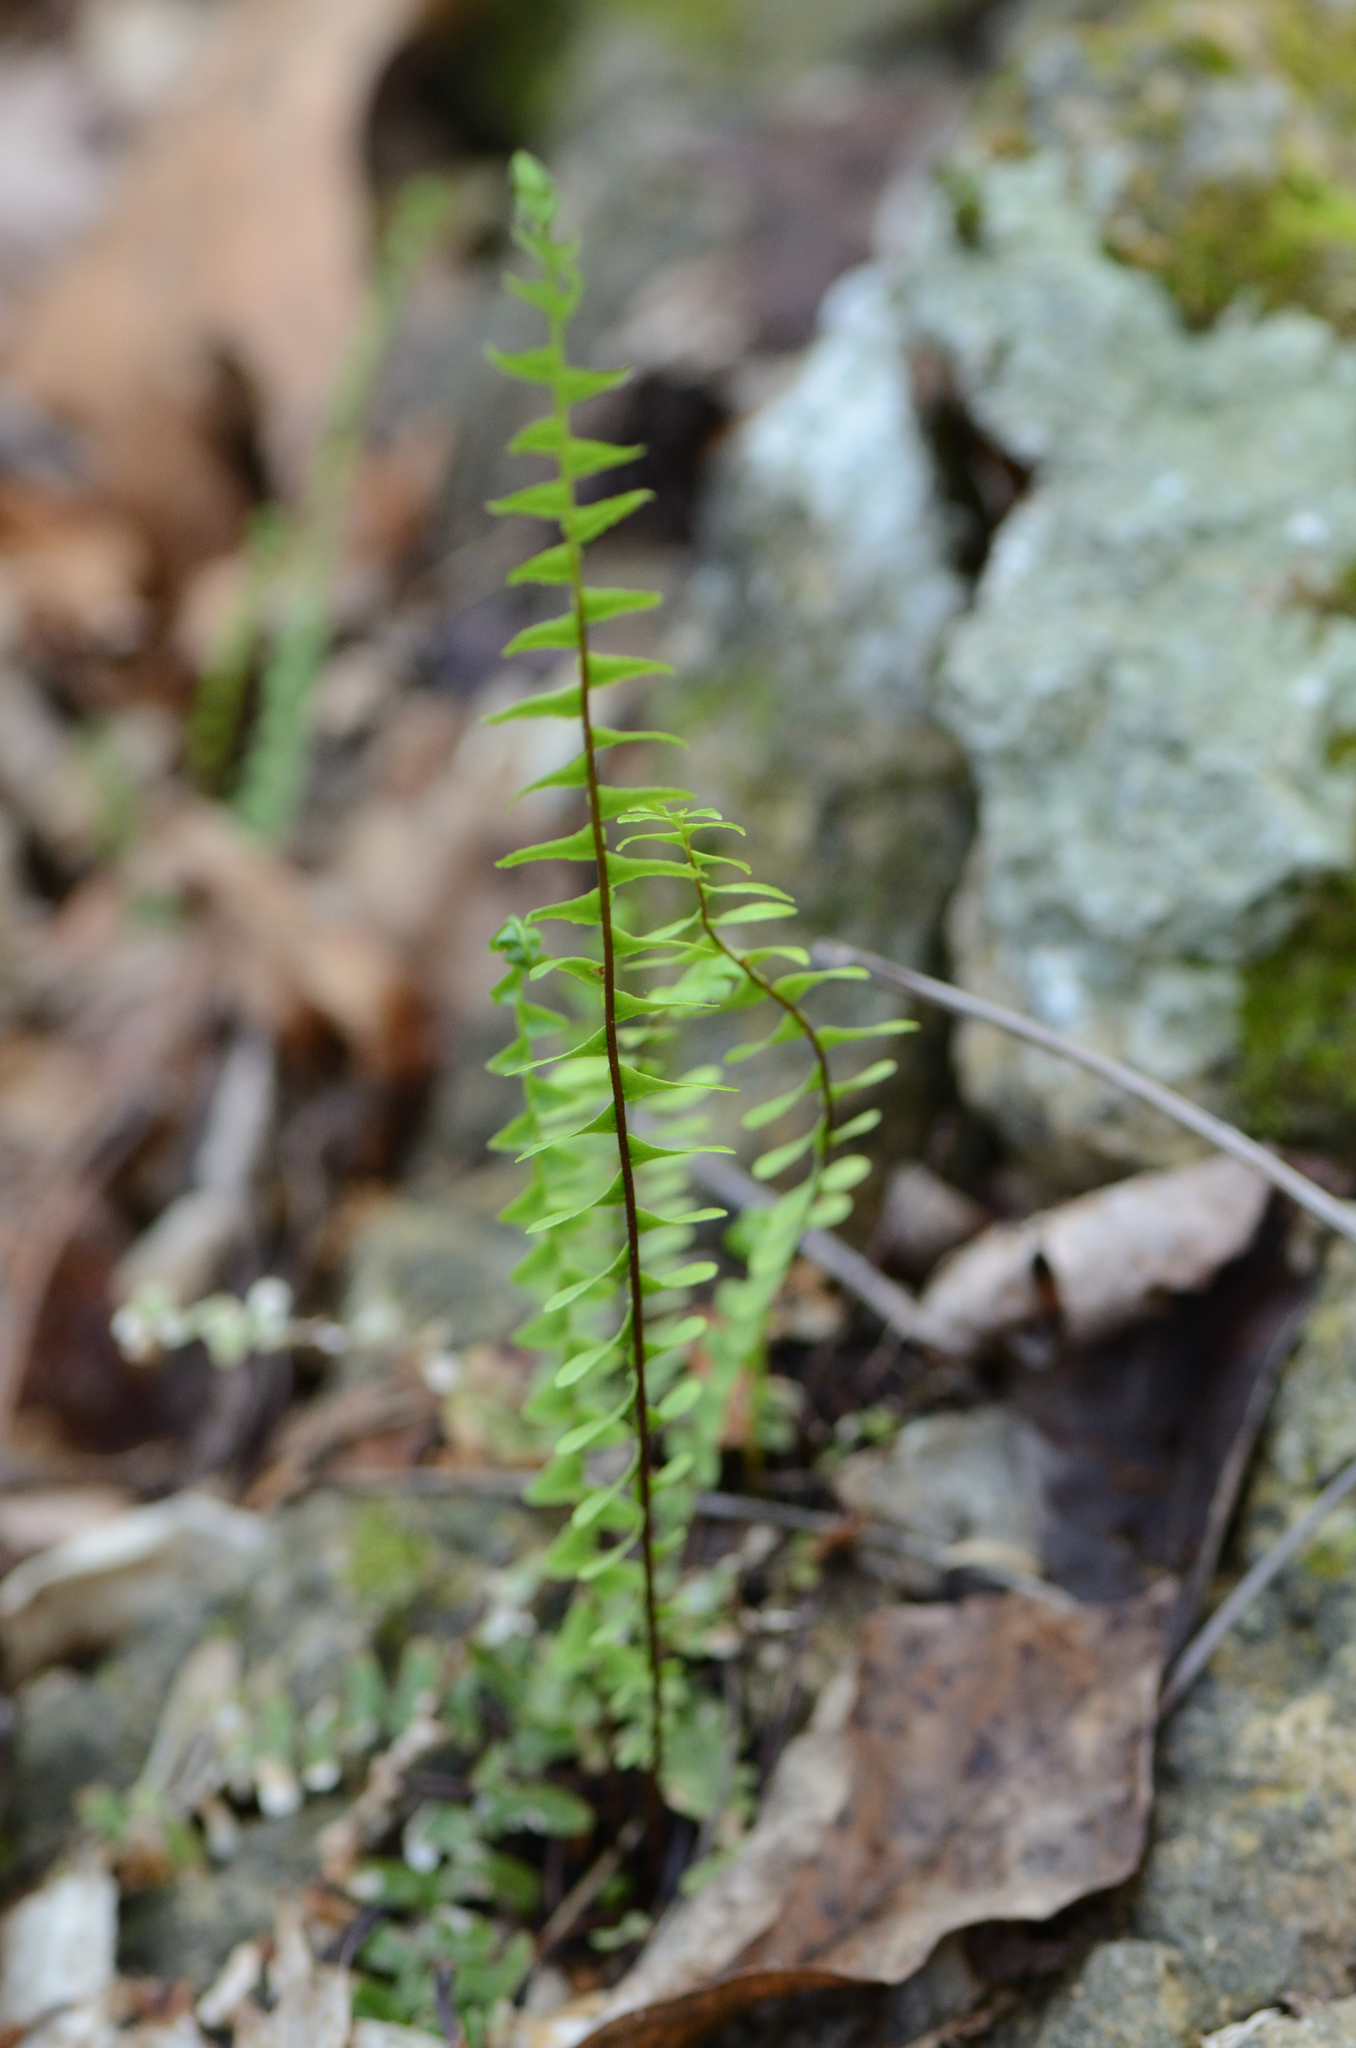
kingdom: Plantae
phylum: Tracheophyta
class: Polypodiopsida
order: Polypodiales
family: Aspleniaceae
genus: Asplenium
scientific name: Asplenium platyneuron
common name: Ebony spleenwort
